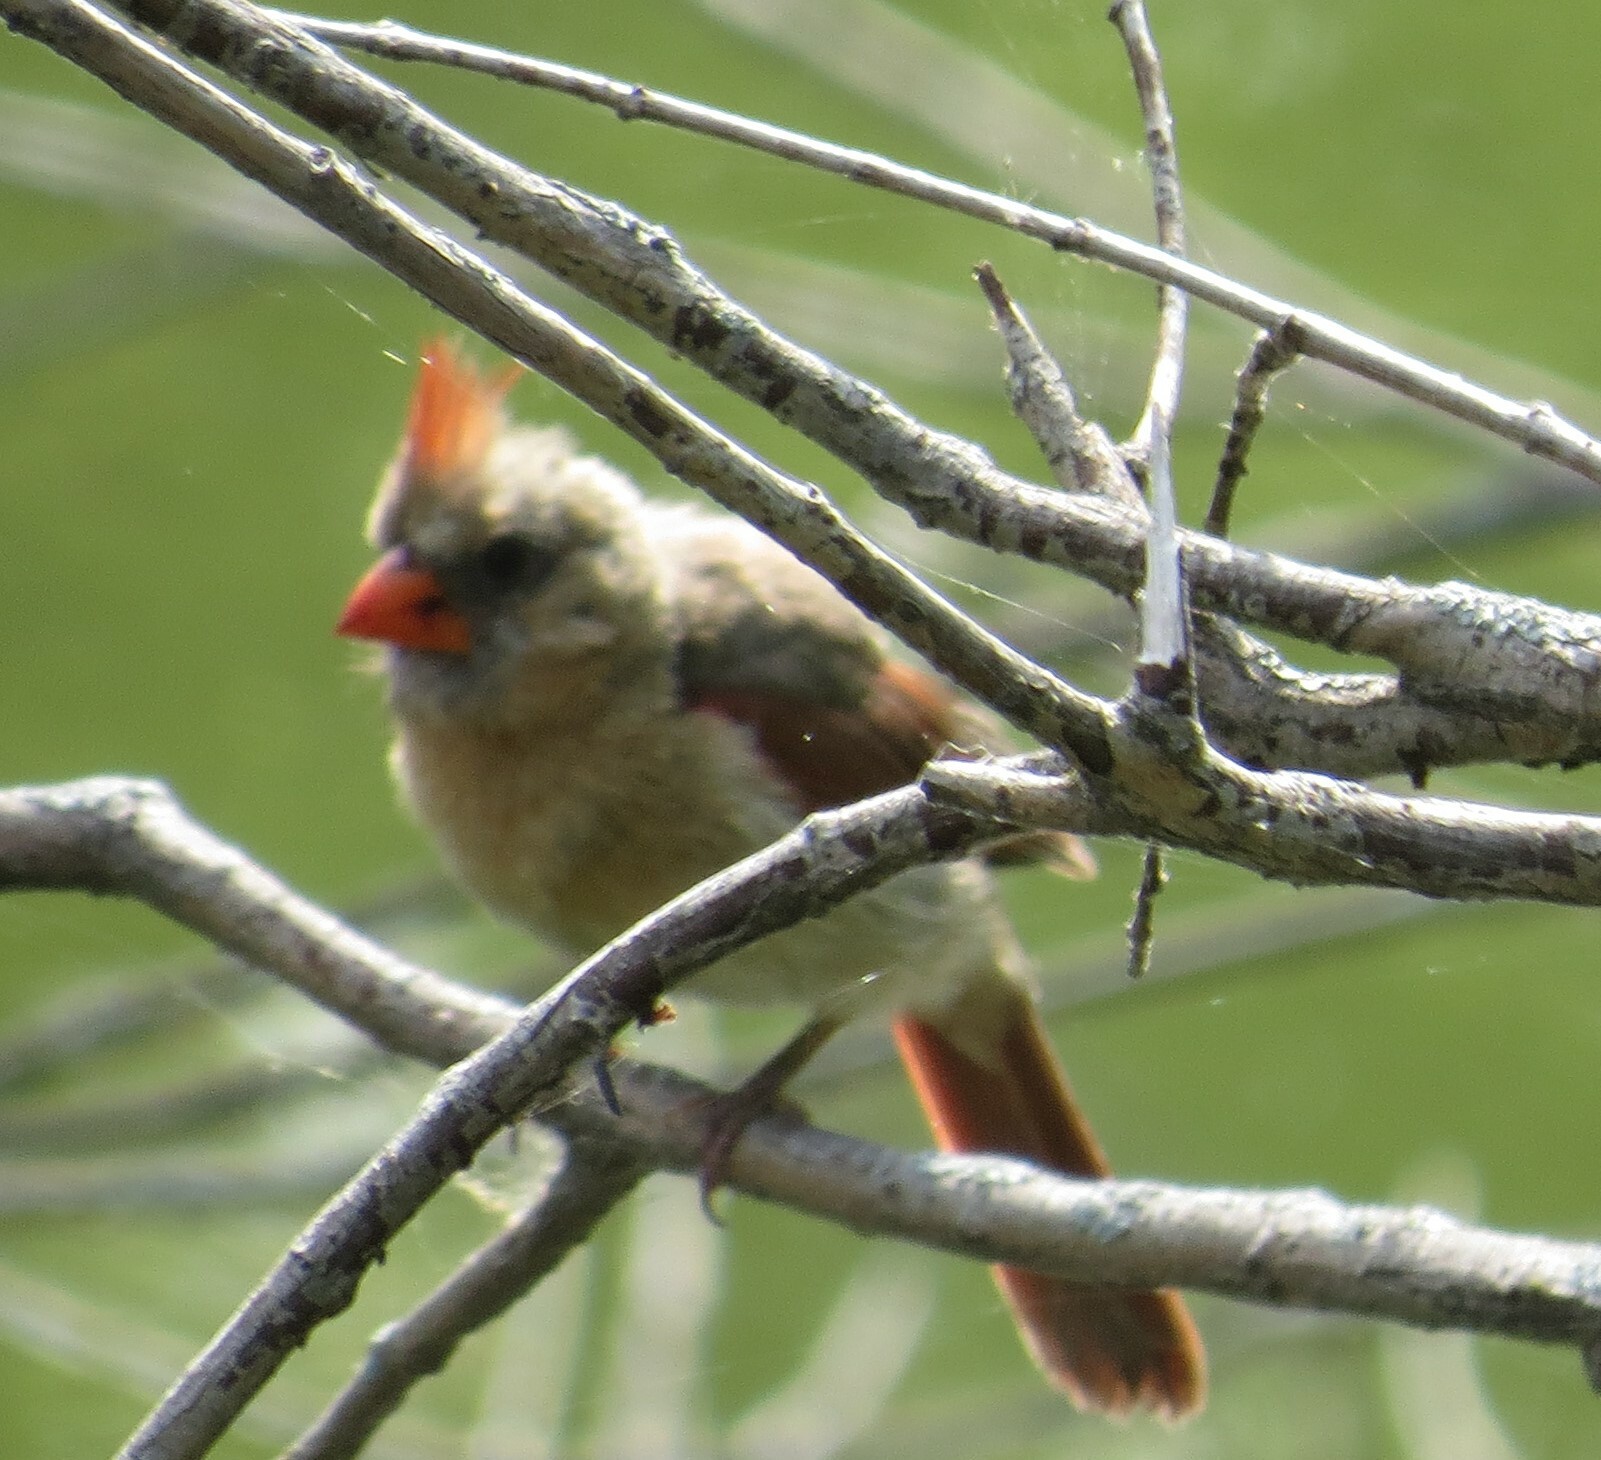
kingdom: Animalia
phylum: Chordata
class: Aves
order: Passeriformes
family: Cardinalidae
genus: Cardinalis
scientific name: Cardinalis cardinalis
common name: Northern cardinal
